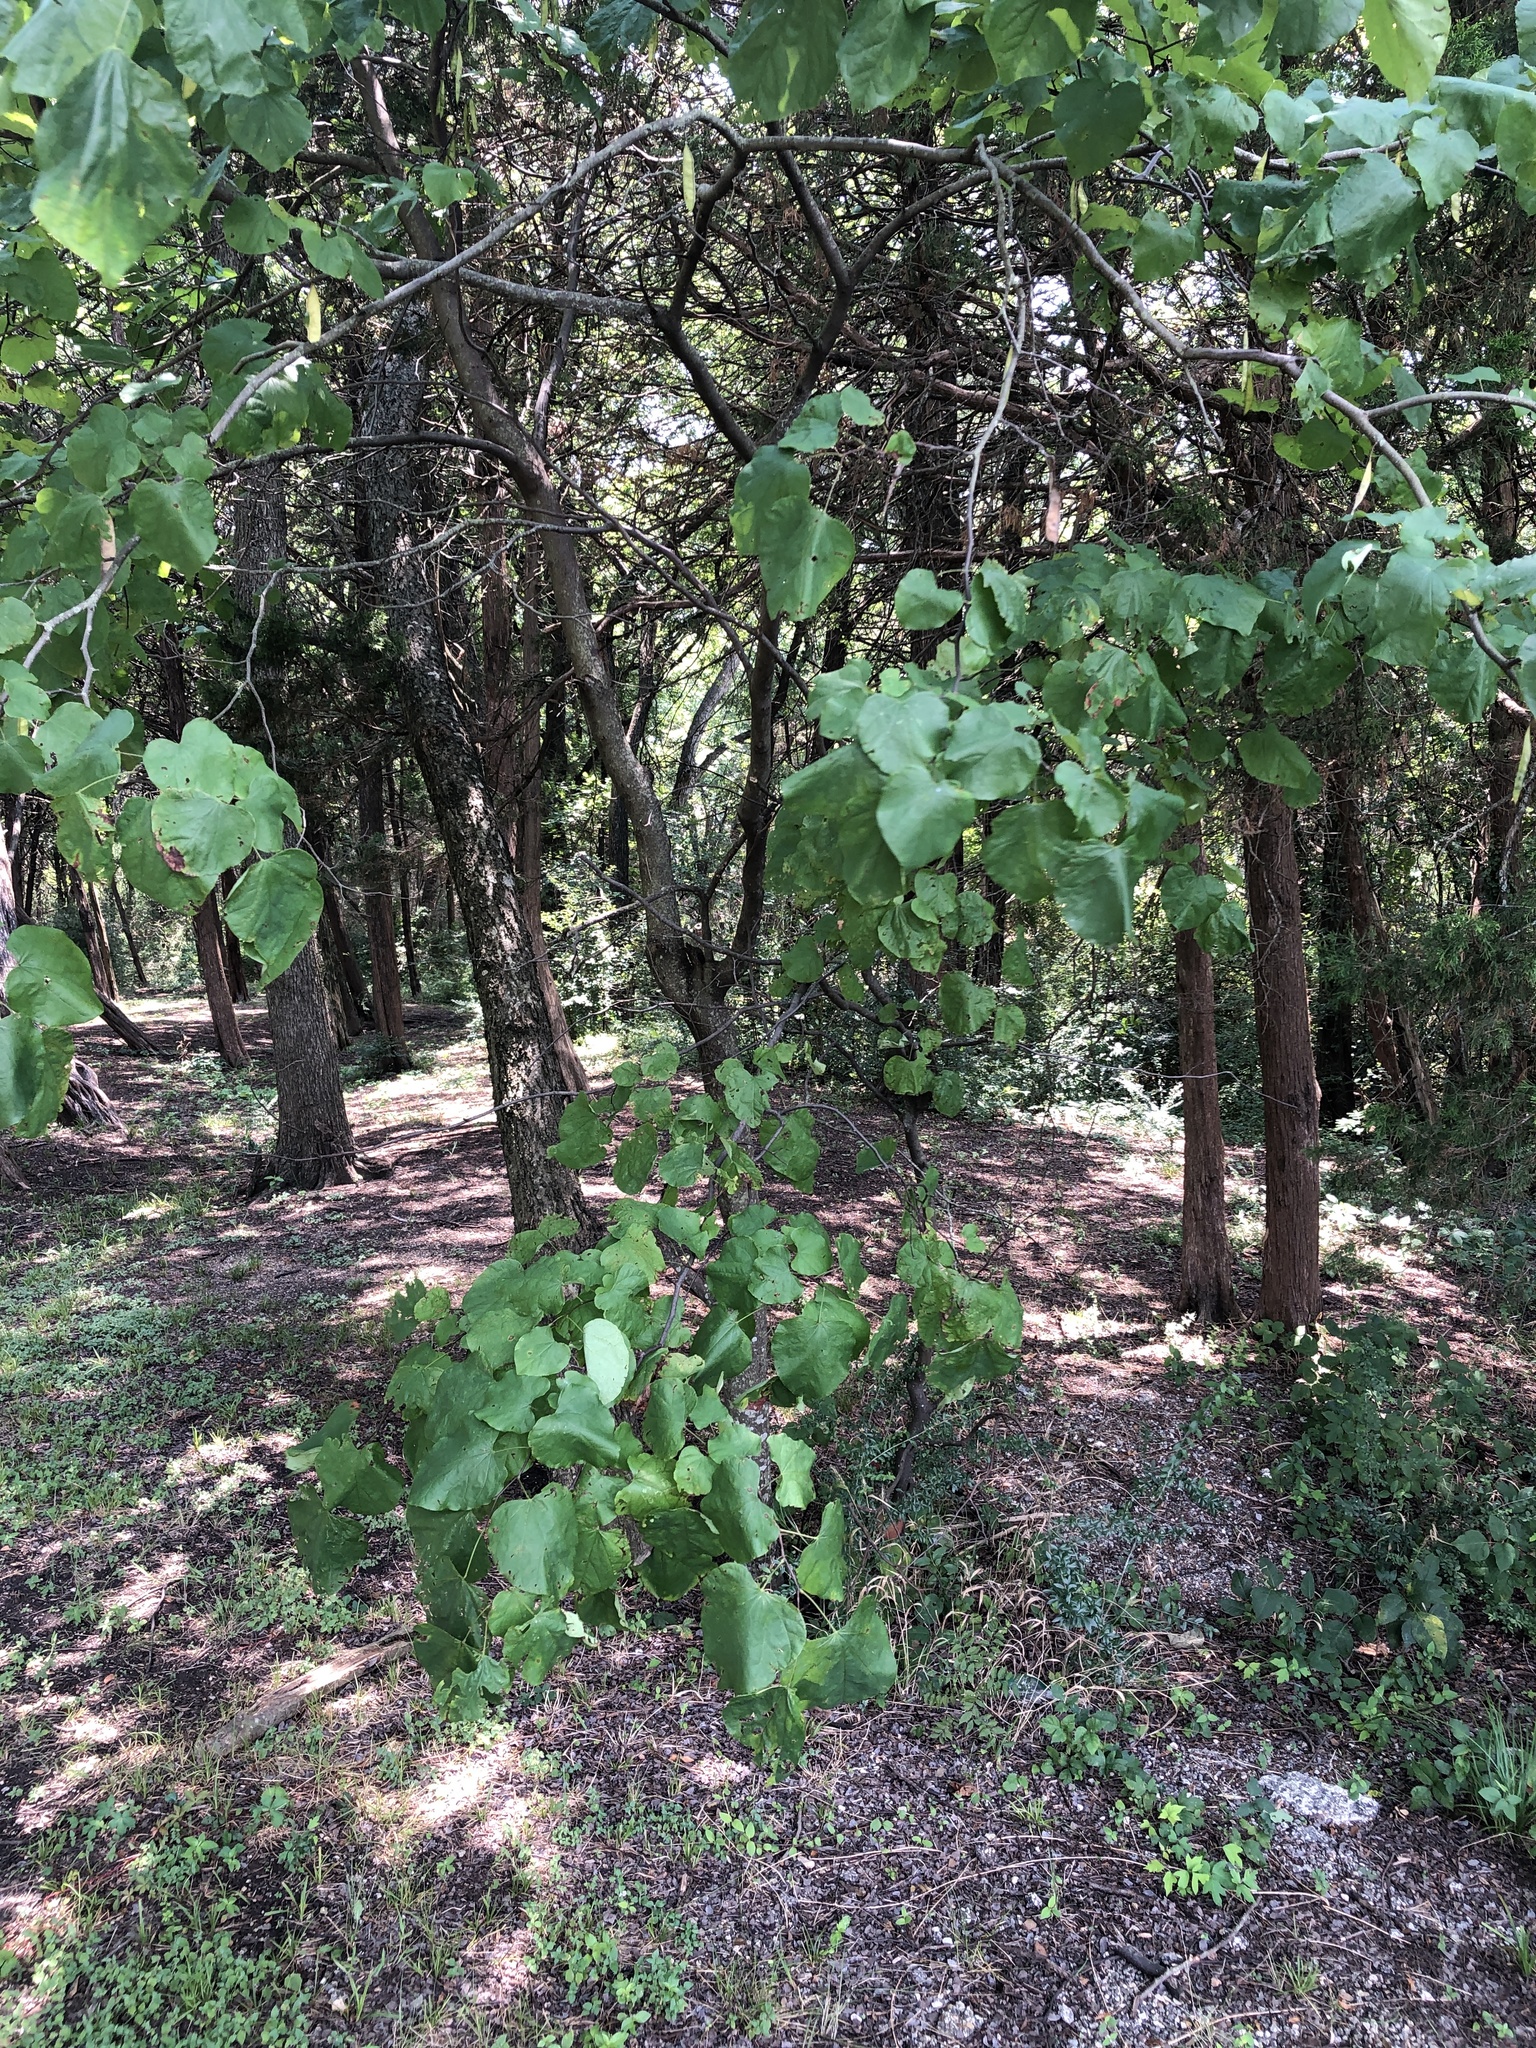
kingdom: Plantae
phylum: Tracheophyta
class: Magnoliopsida
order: Fabales
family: Fabaceae
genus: Cercis
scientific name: Cercis canadensis
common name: Eastern redbud
